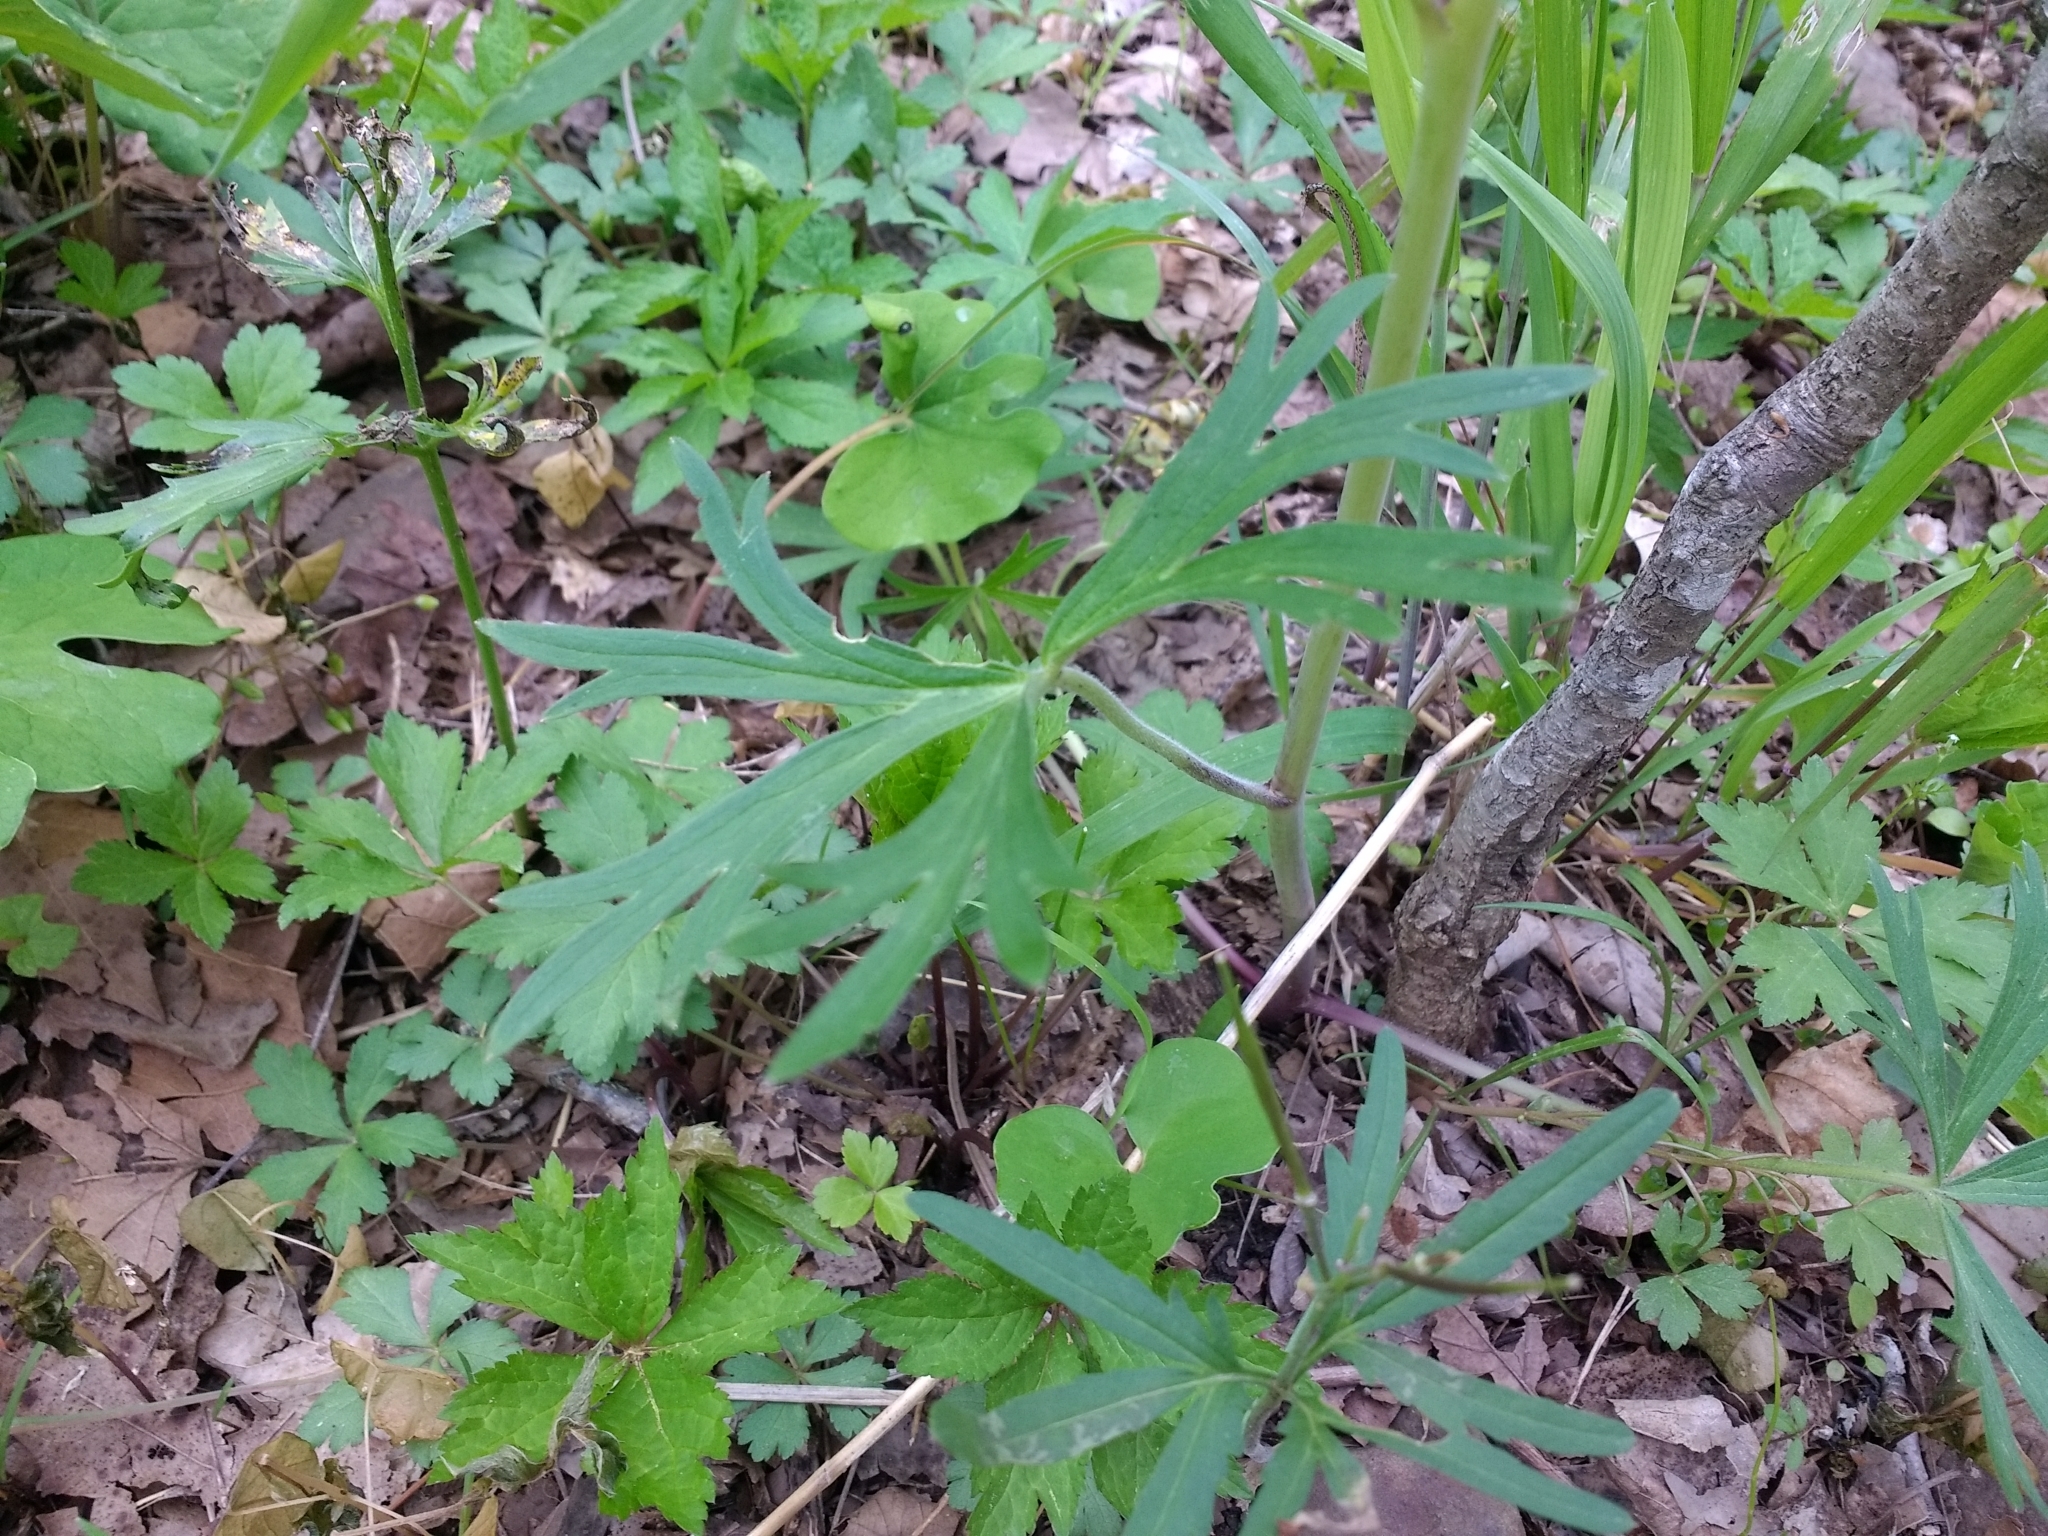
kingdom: Plantae
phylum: Tracheophyta
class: Magnoliopsida
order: Ranunculales
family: Ranunculaceae
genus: Delphinium
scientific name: Delphinium tricorne
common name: Dwarf larkspur
